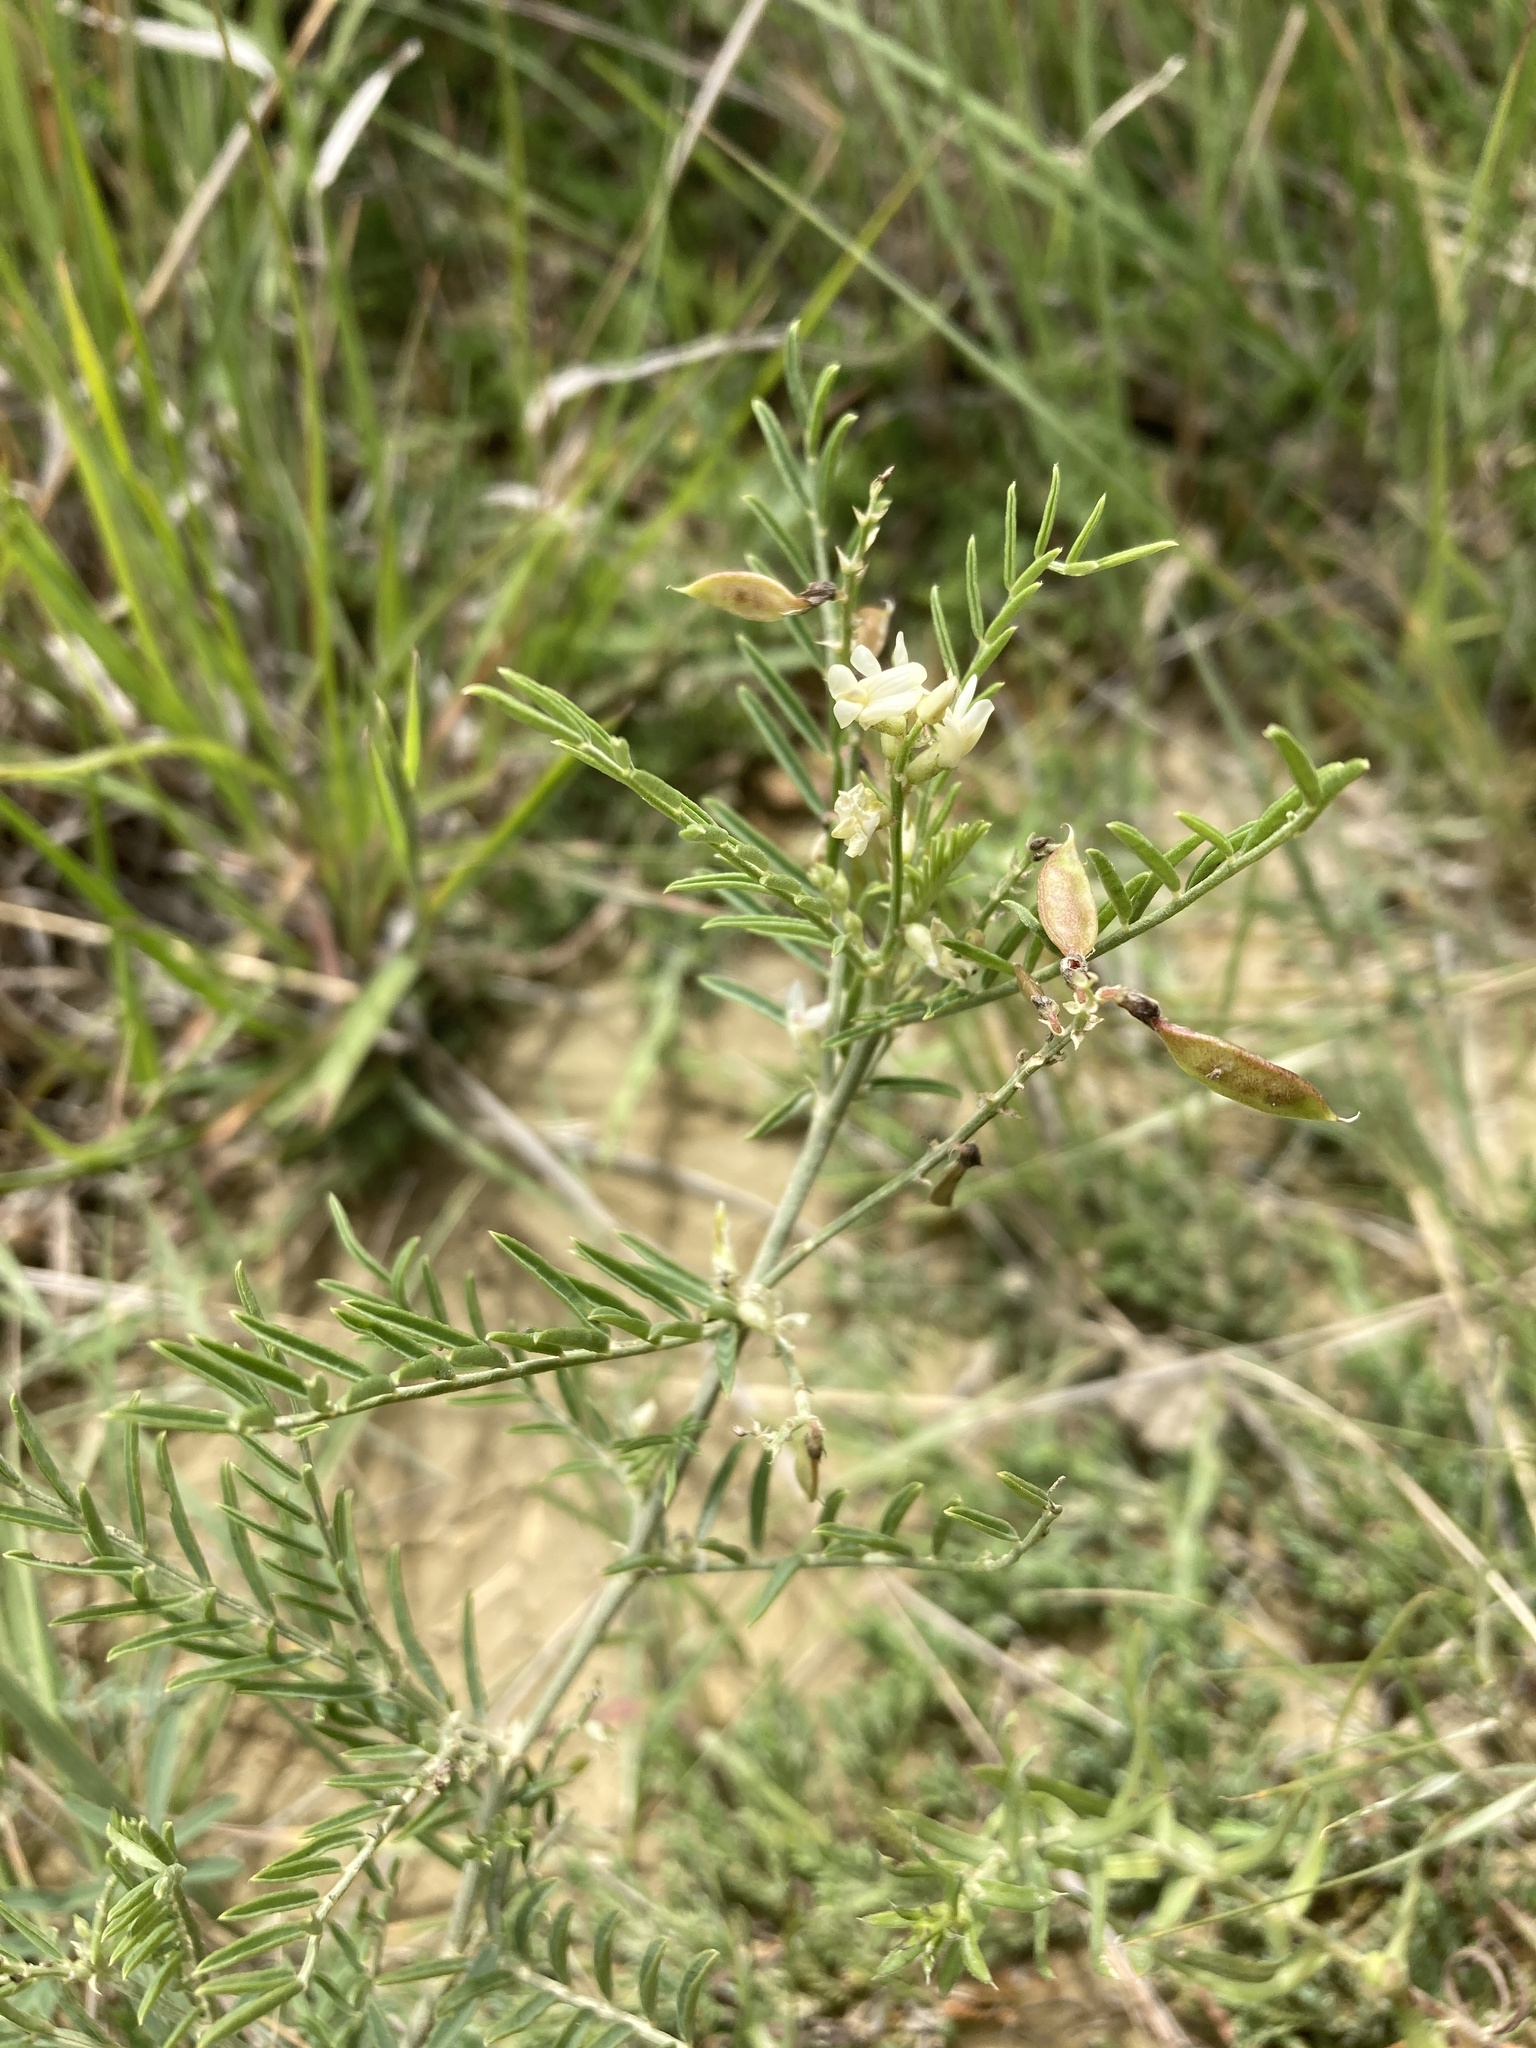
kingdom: Plantae
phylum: Tracheophyta
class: Magnoliopsida
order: Fabales
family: Fabaceae
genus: Astragalus
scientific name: Astragalus tenellus
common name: Pulse milk-vetch
